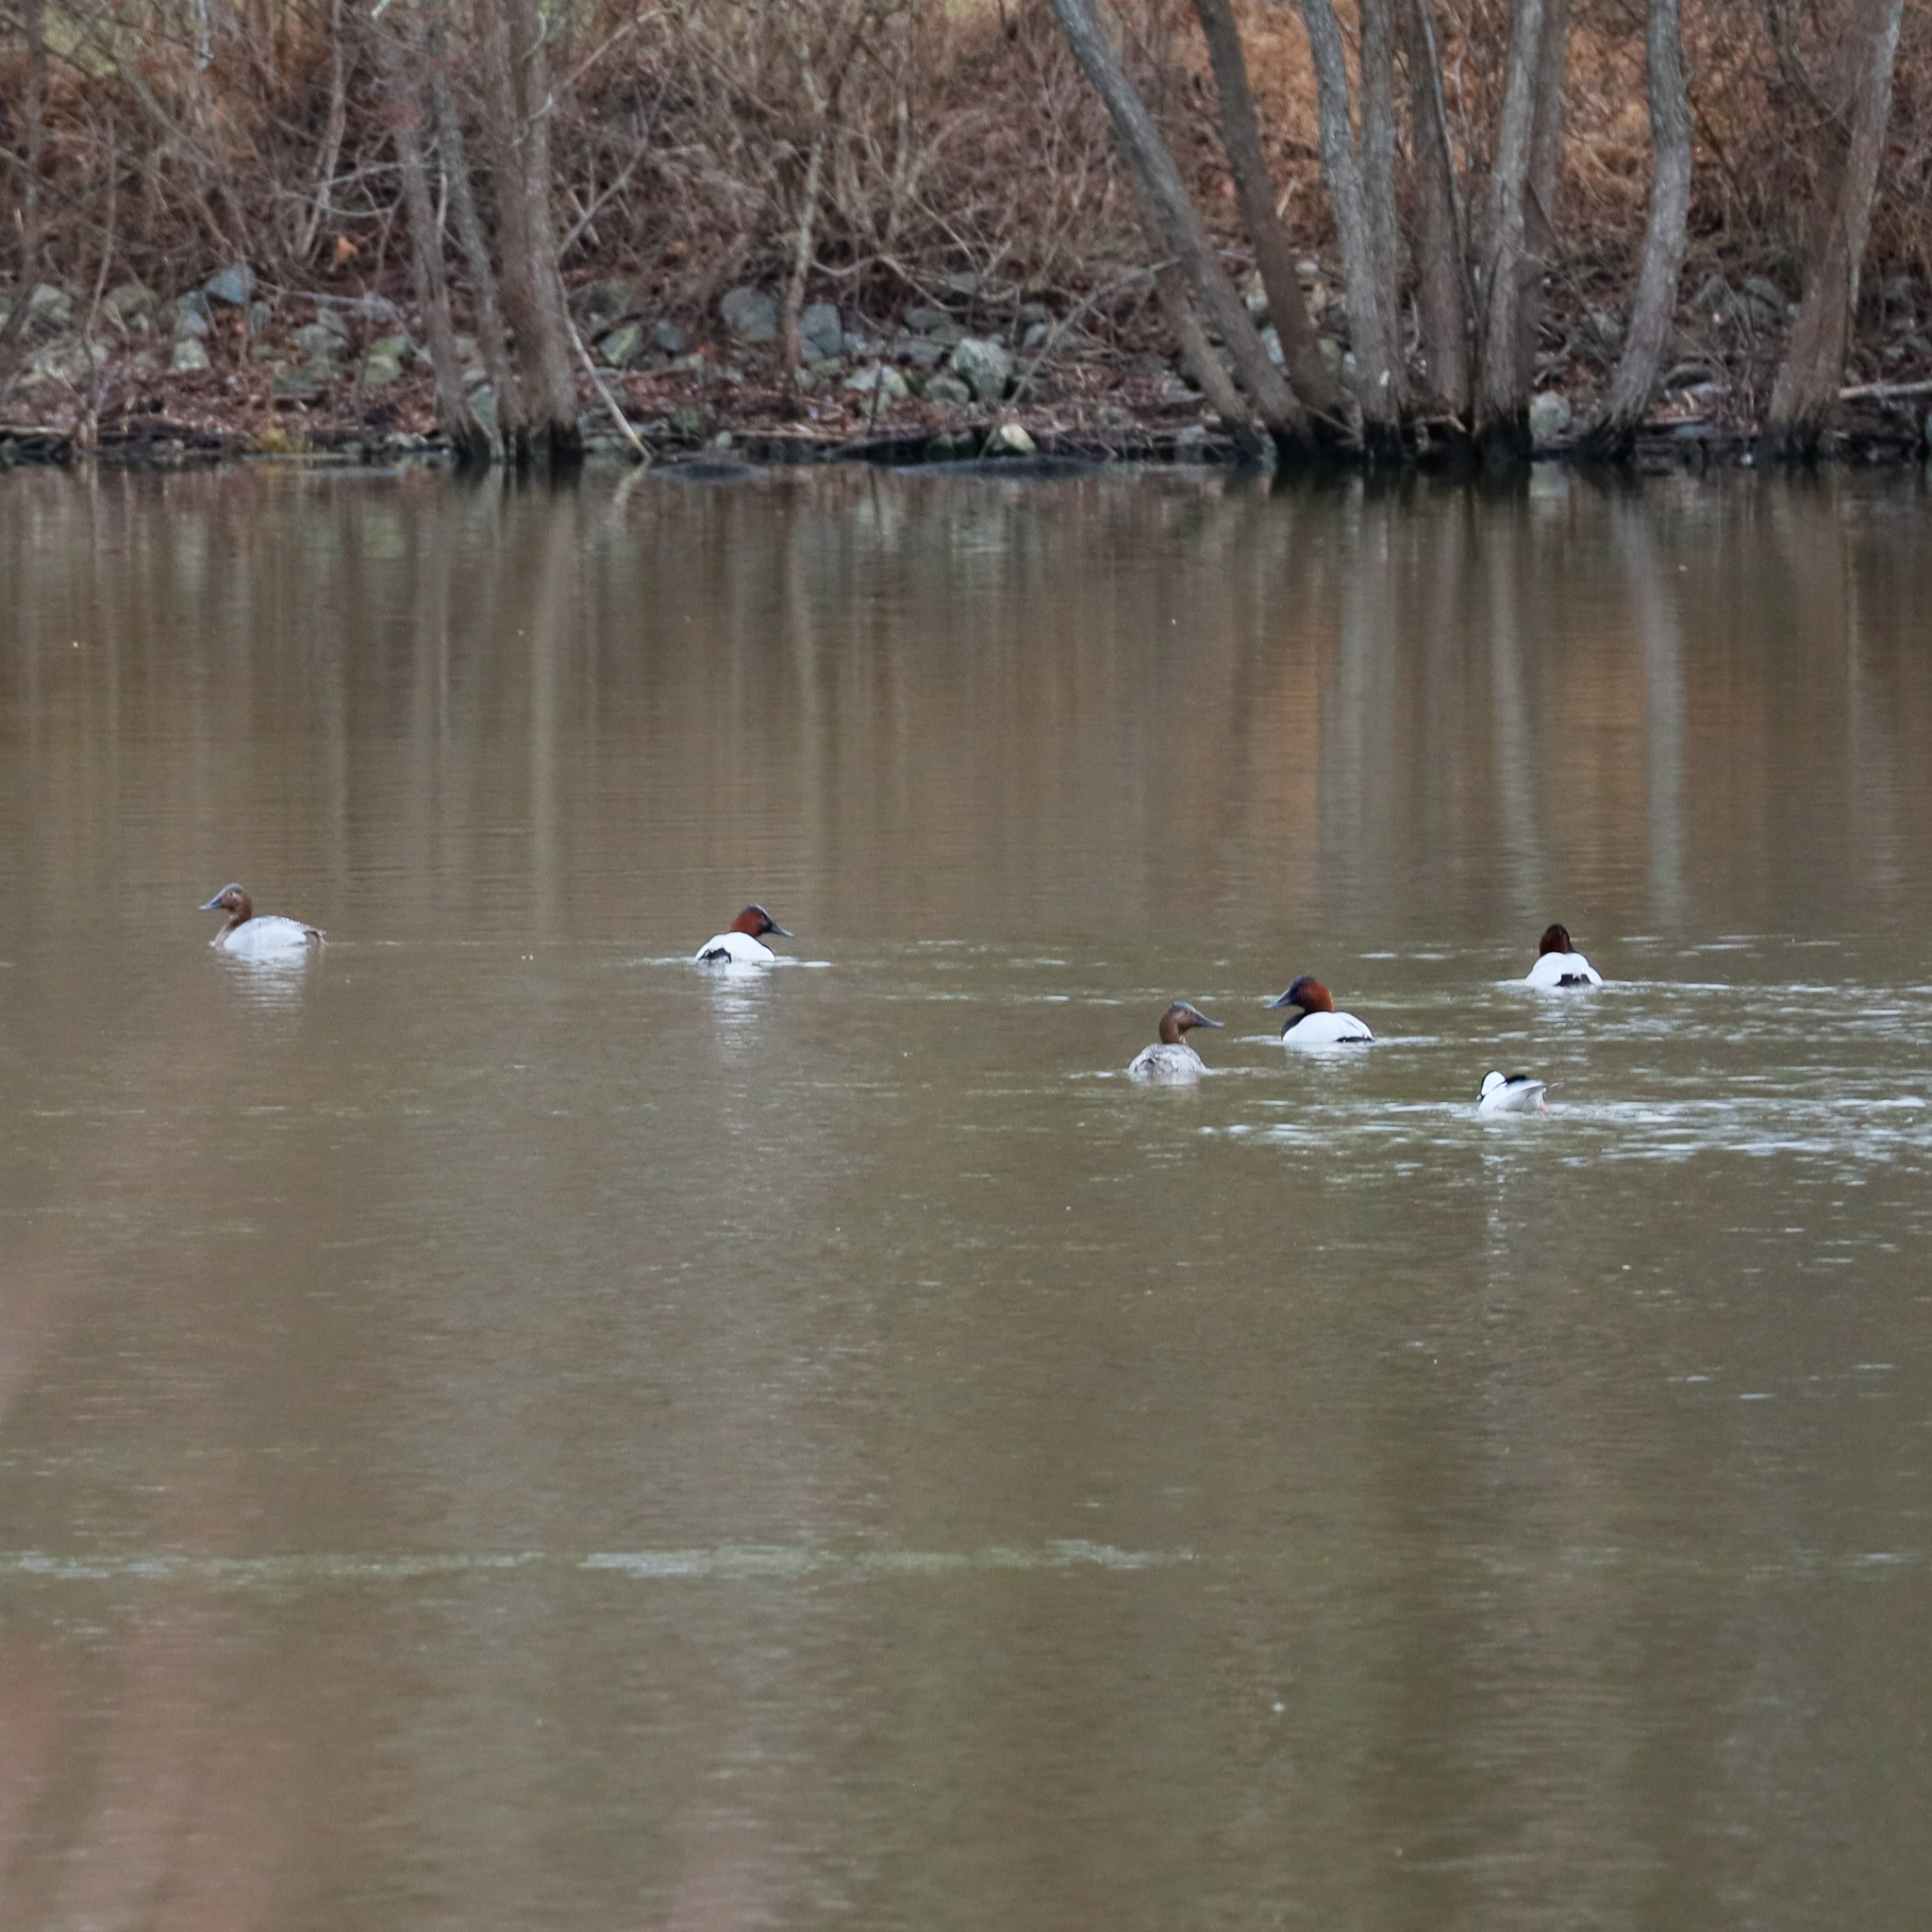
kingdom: Animalia
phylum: Chordata
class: Aves
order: Anseriformes
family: Anatidae
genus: Aythya
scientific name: Aythya valisineria
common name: Canvasback
